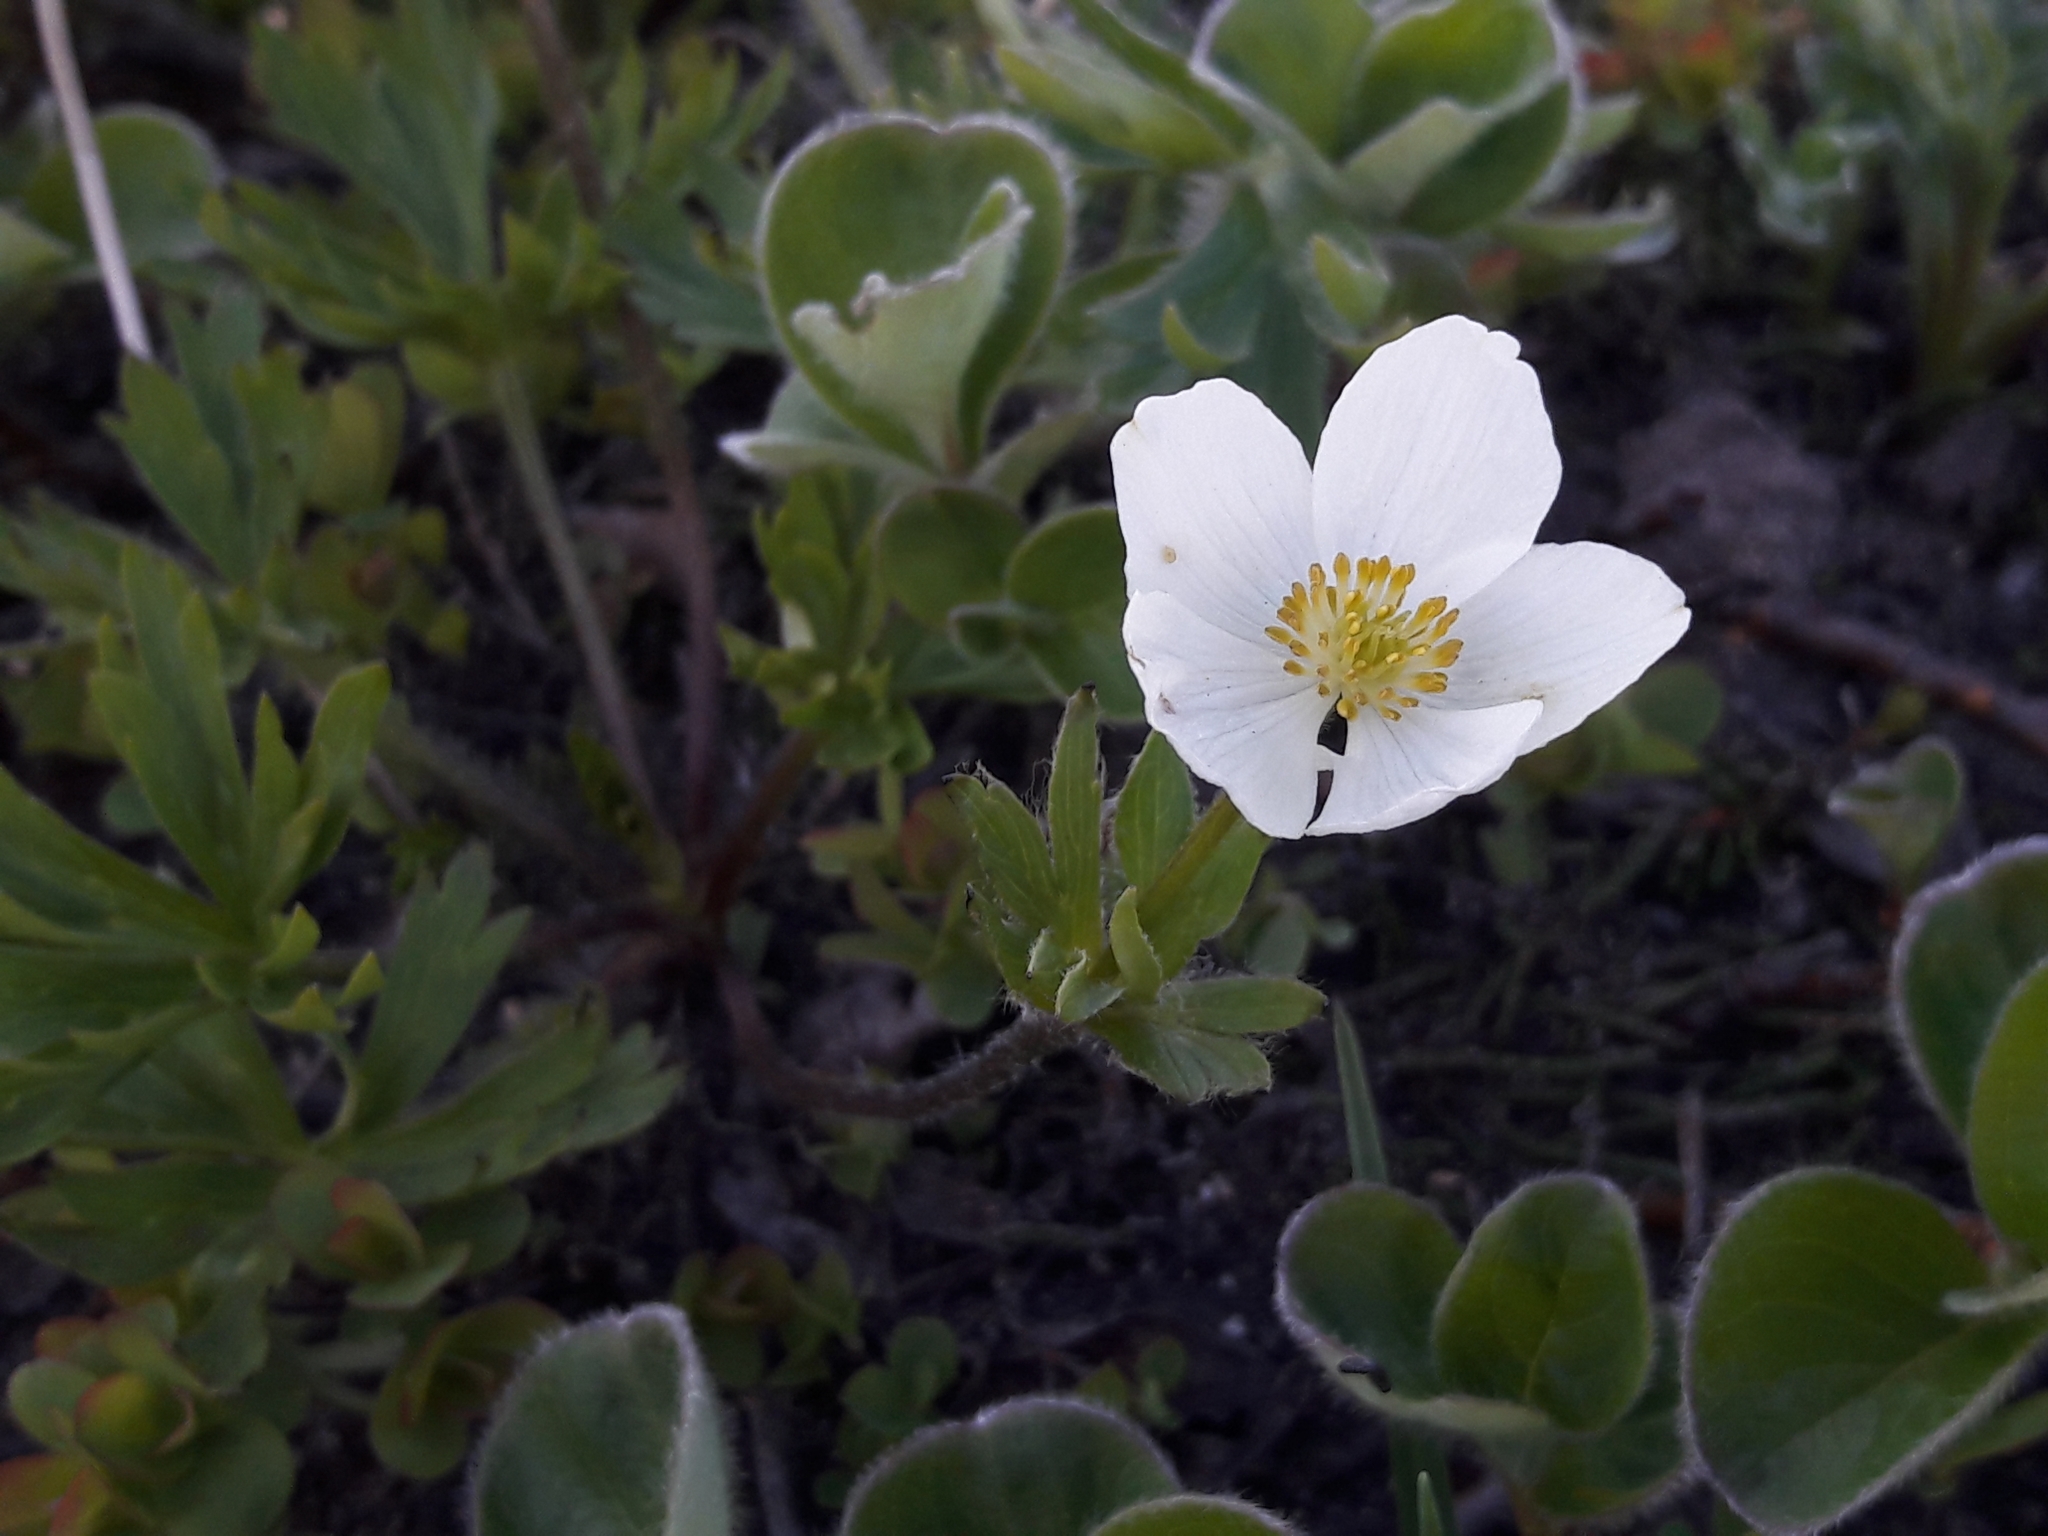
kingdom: Plantae
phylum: Tracheophyta
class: Magnoliopsida
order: Ranunculales
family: Ranunculaceae
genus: Anemonastrum
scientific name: Anemonastrum narcissiflorum
